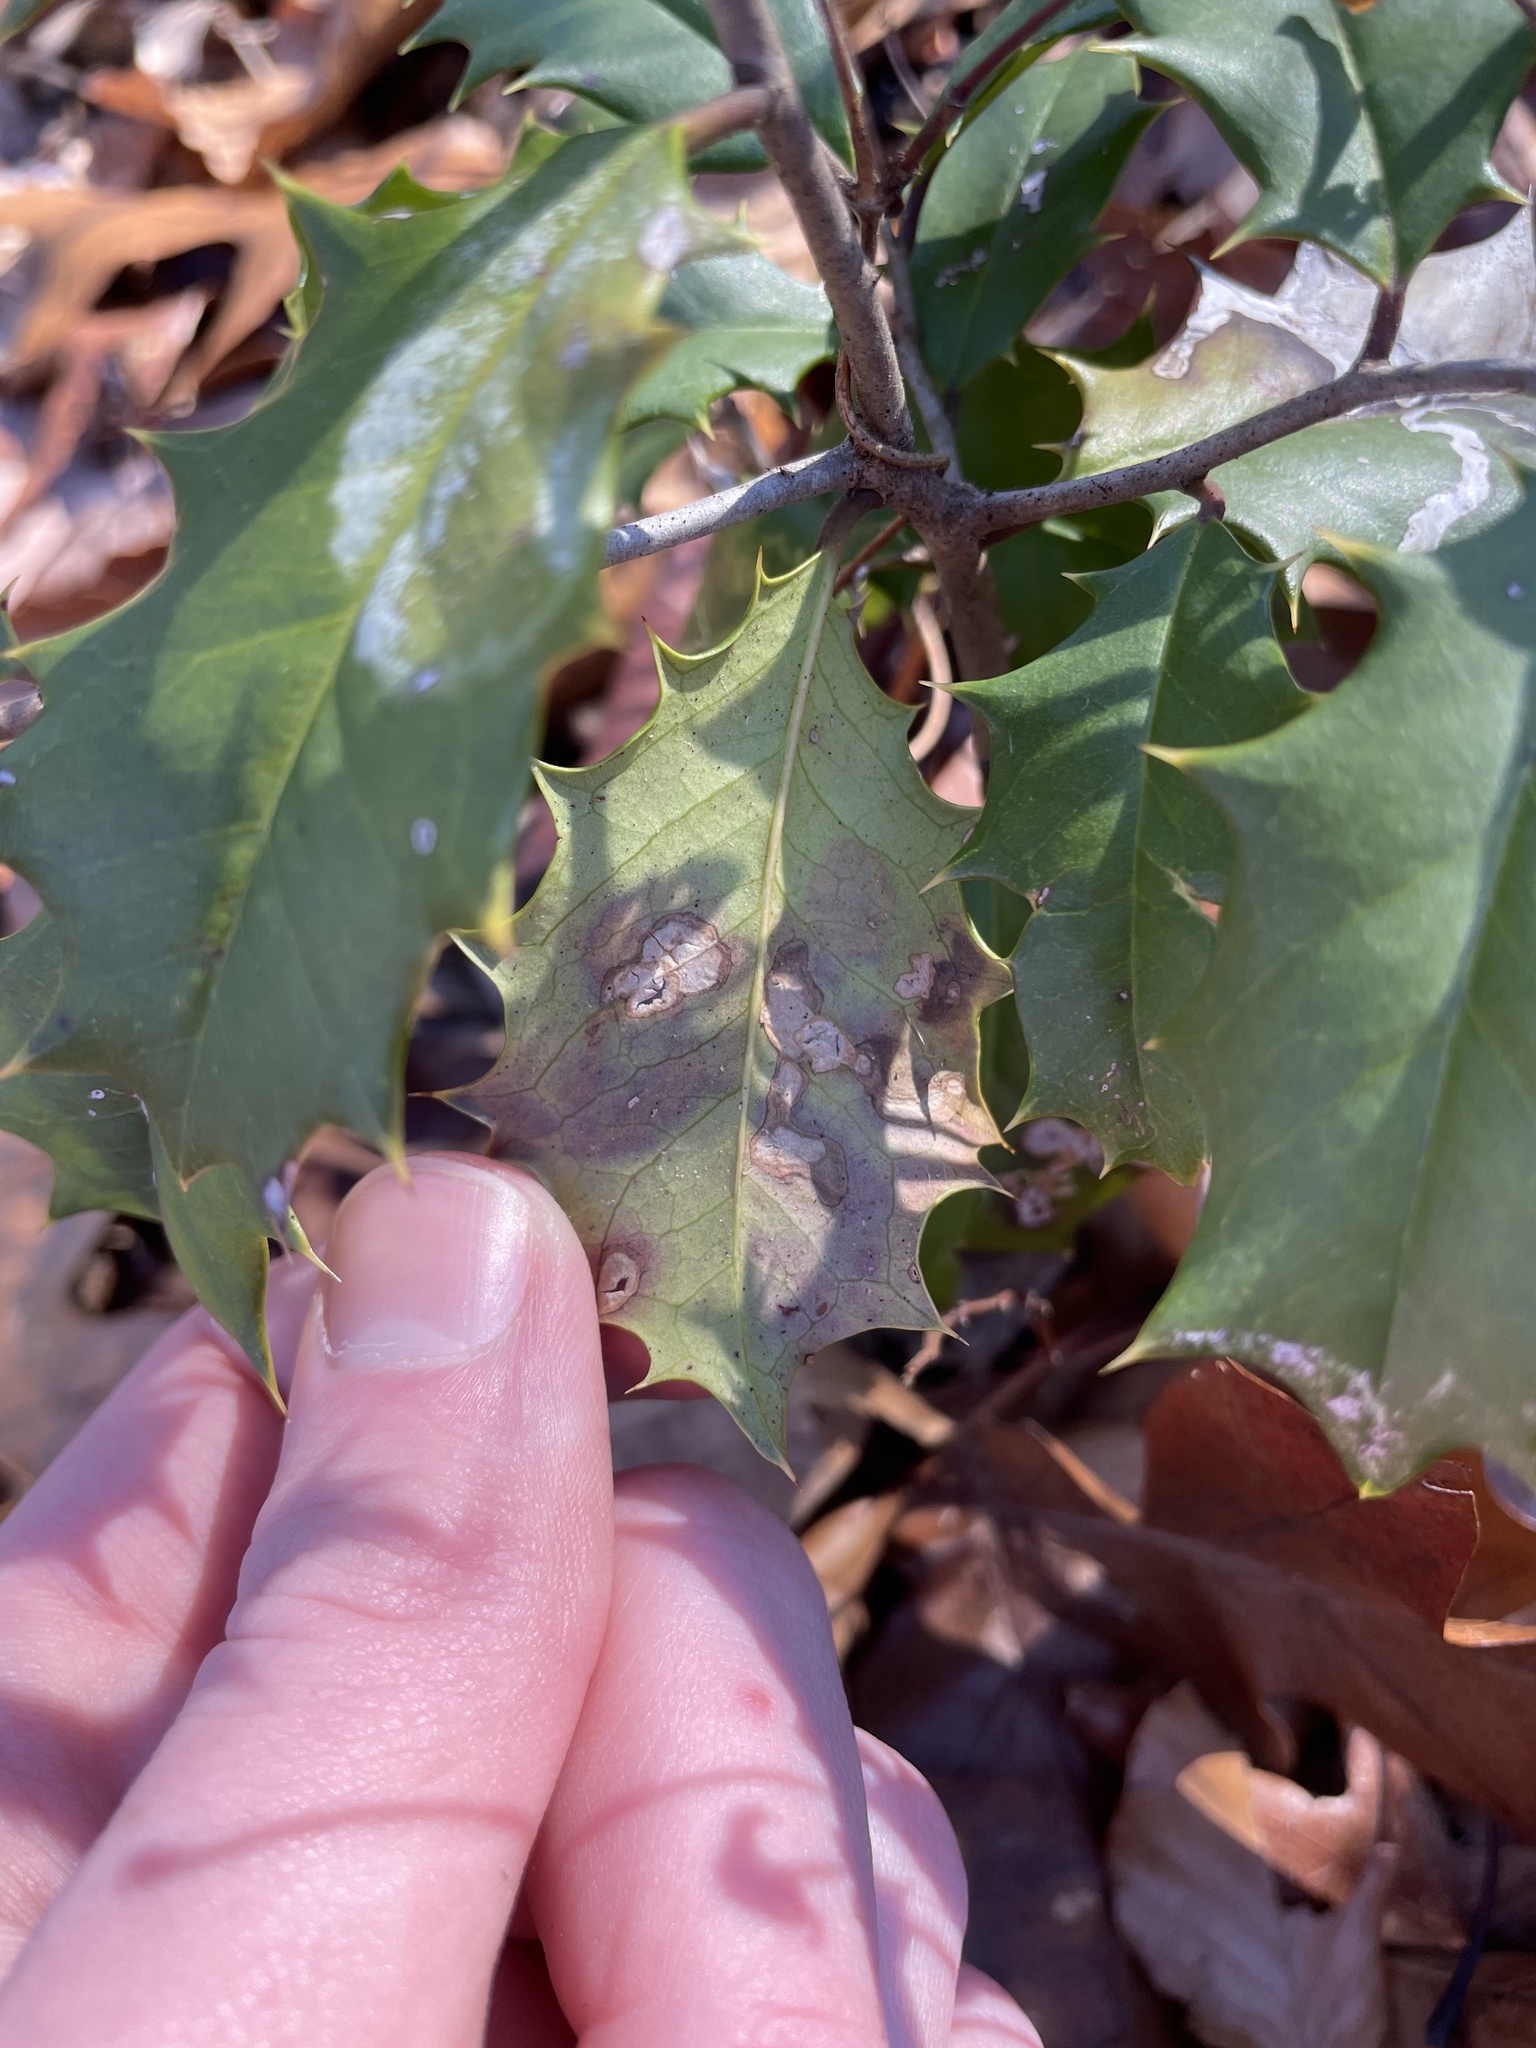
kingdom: Animalia
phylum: Arthropoda
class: Insecta
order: Diptera
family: Agromyzidae
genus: Phytomyza
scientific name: Phytomyza ilicicola
